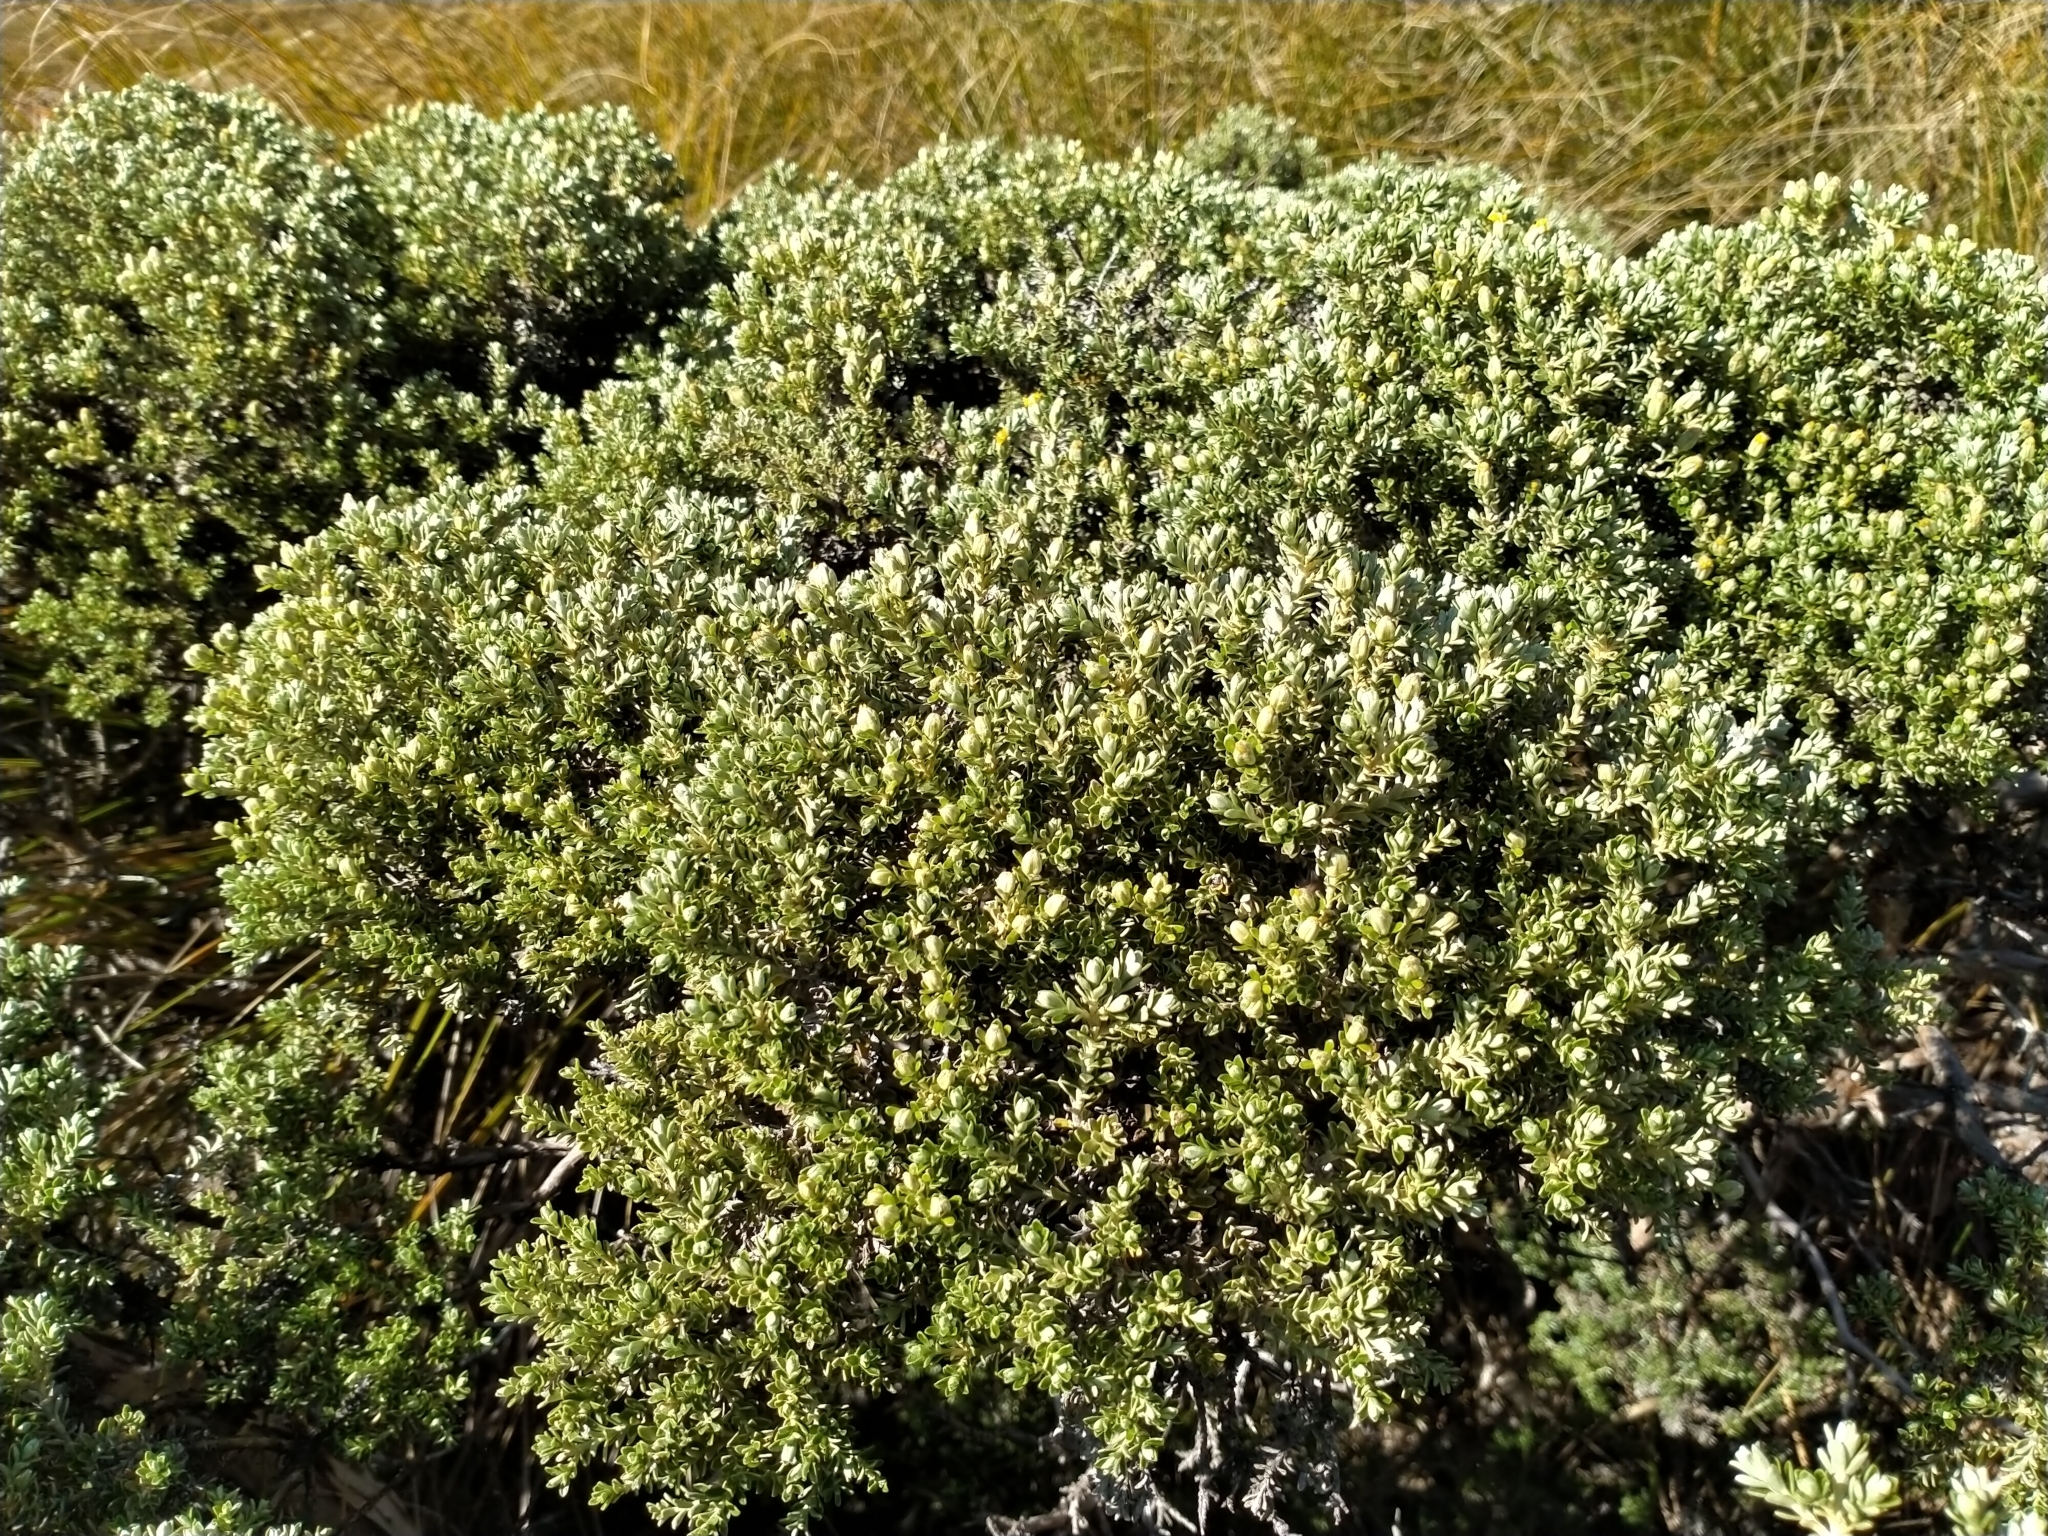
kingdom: Plantae
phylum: Tracheophyta
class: Magnoliopsida
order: Asterales
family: Asteraceae
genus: Brachyglottis
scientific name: Brachyglottis cassinioides
